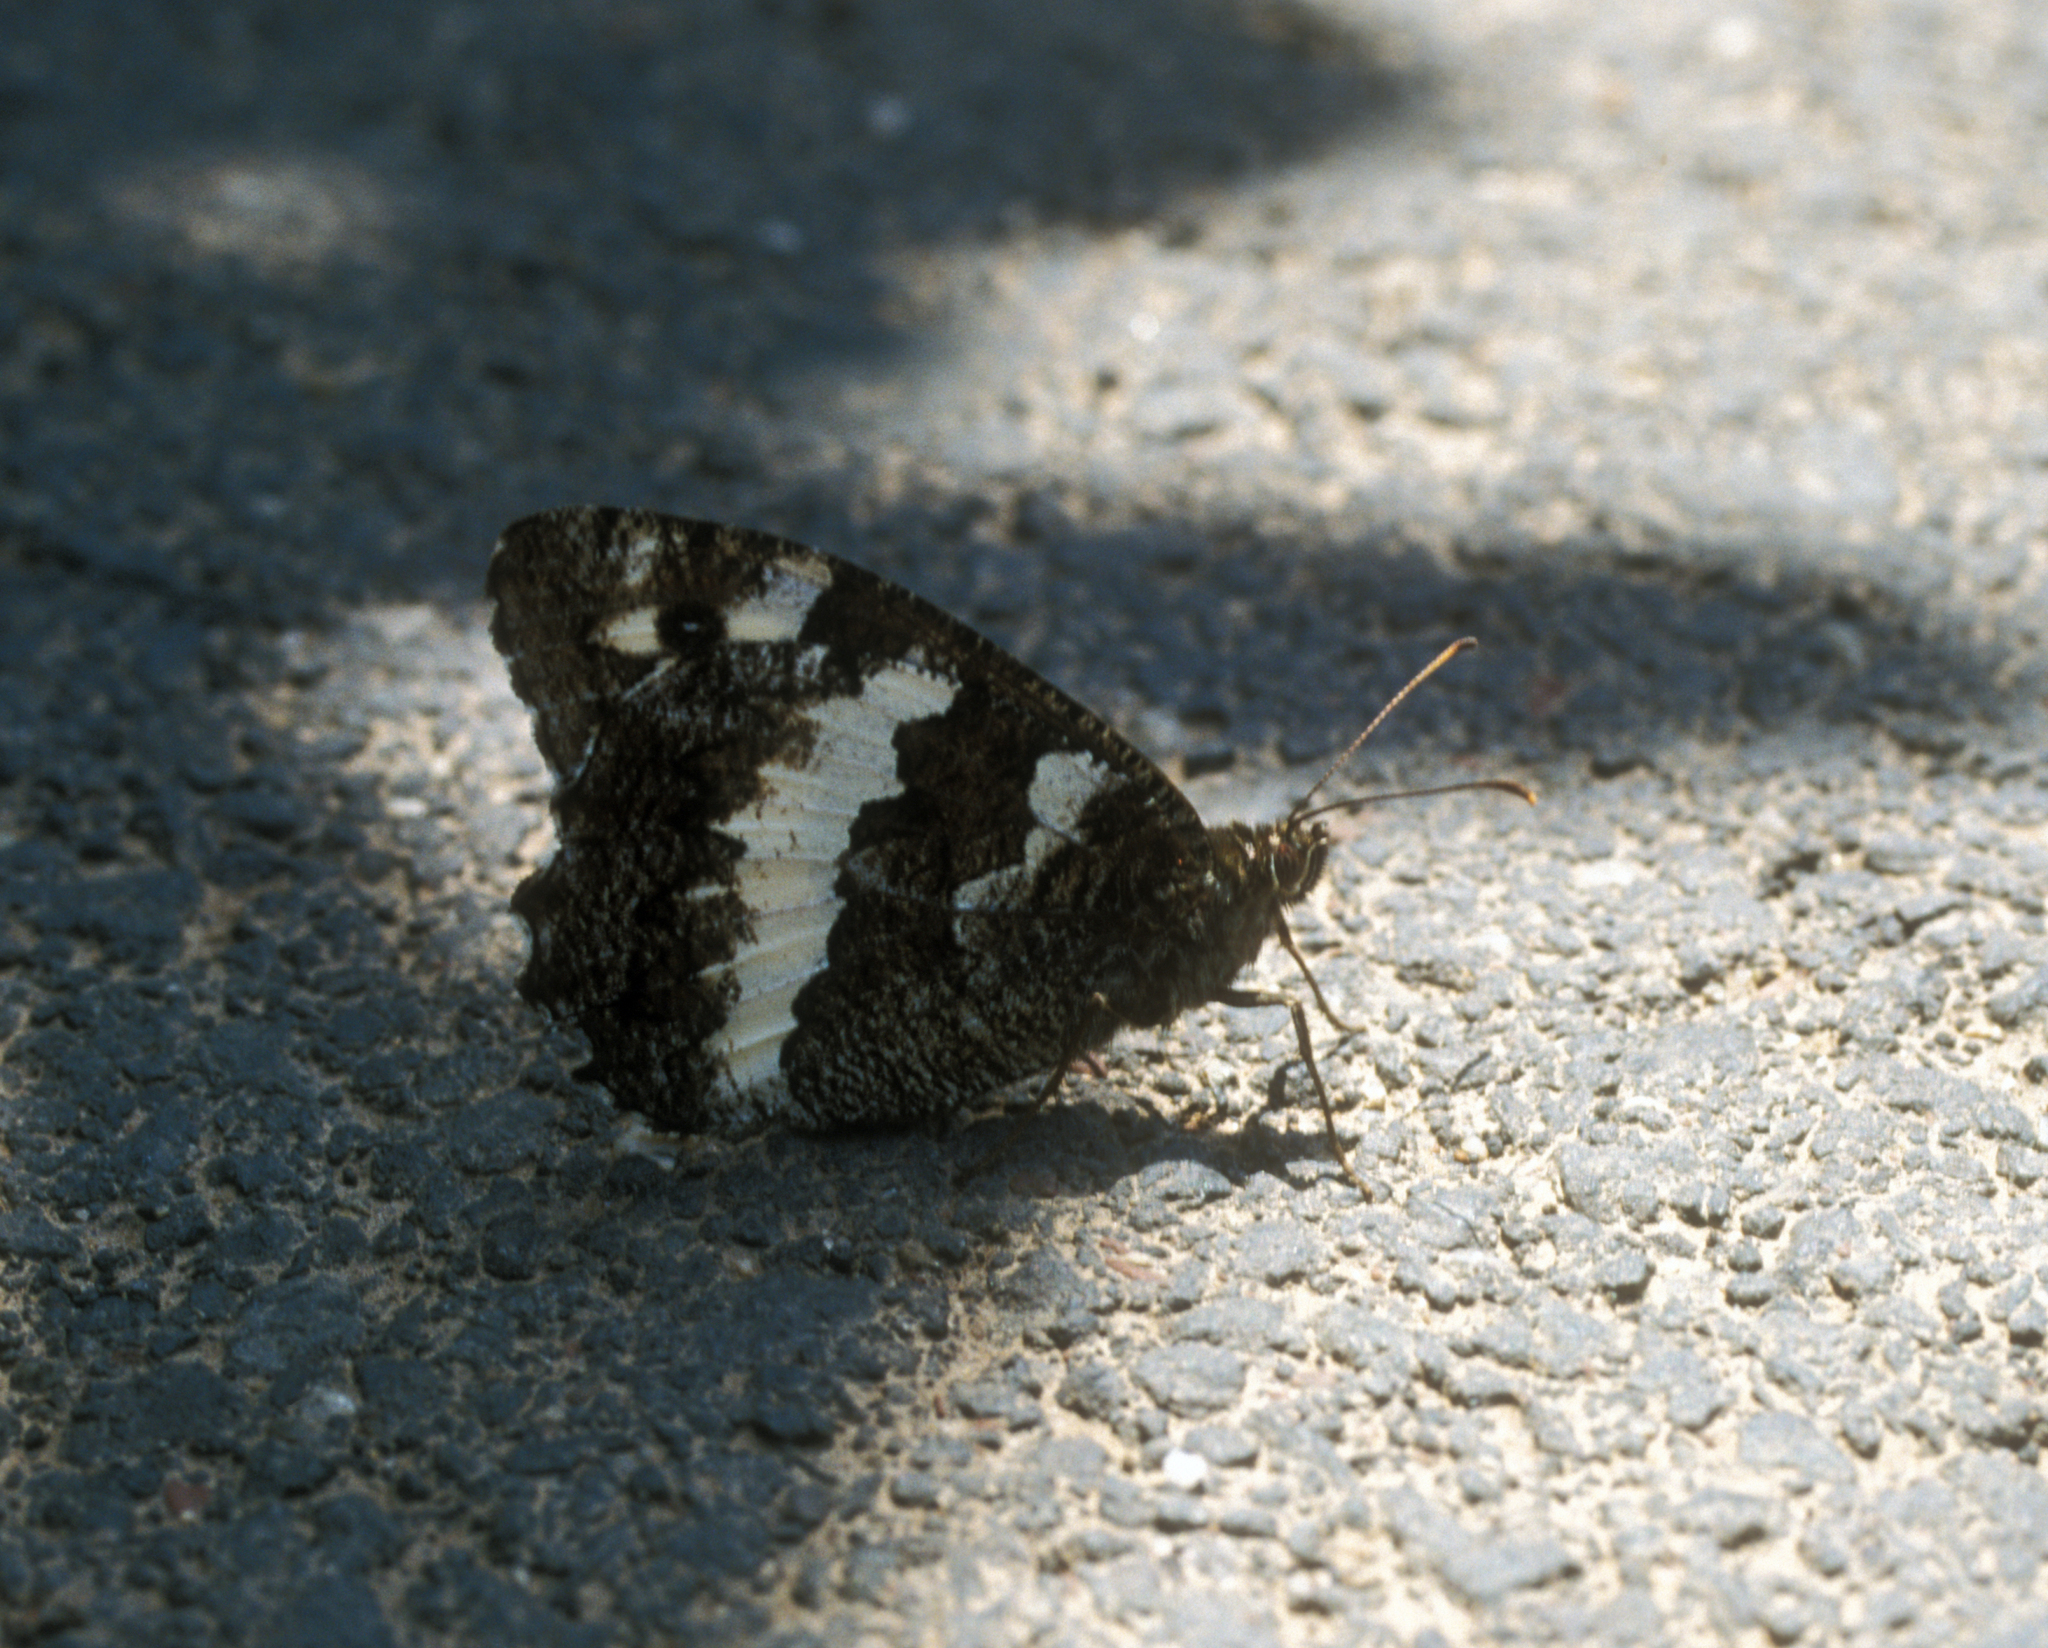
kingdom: Animalia
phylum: Arthropoda
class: Insecta
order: Lepidoptera
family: Lycaenidae
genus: Loweia
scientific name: Loweia tityrus
